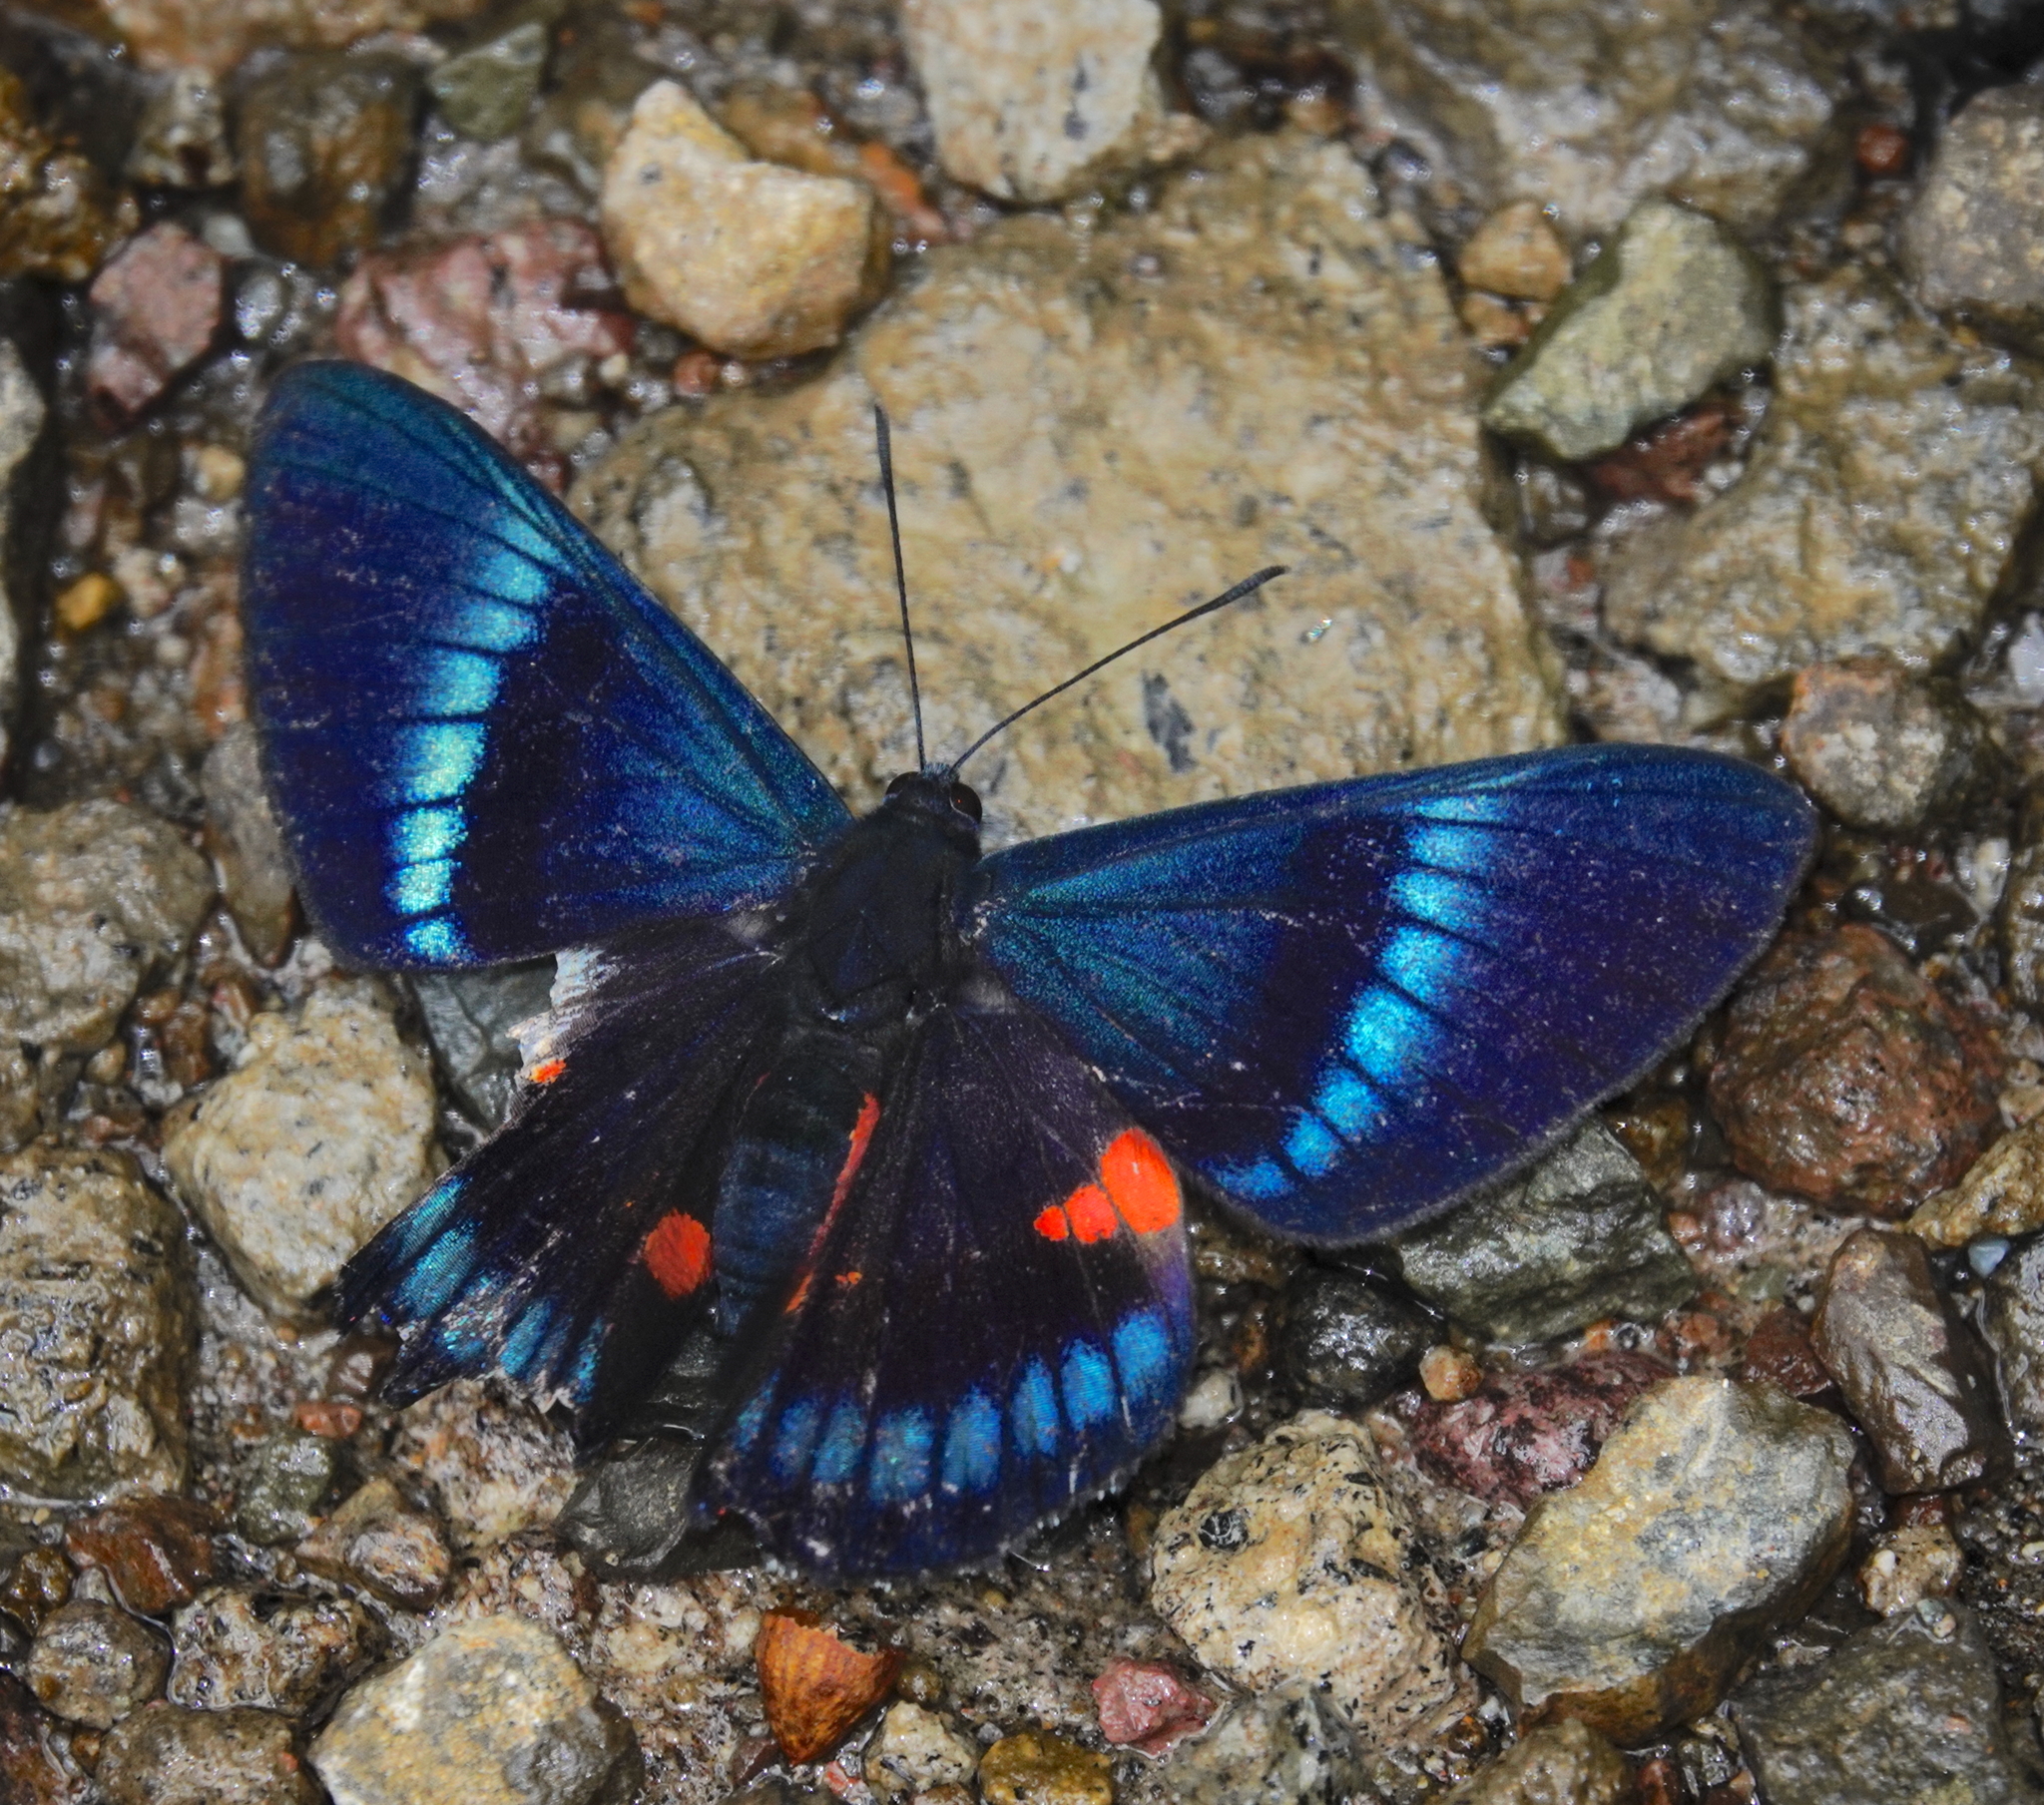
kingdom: Animalia
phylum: Arthropoda
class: Insecta
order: Lepidoptera
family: Lycaenidae
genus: Necyria
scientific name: Necyria bellona
